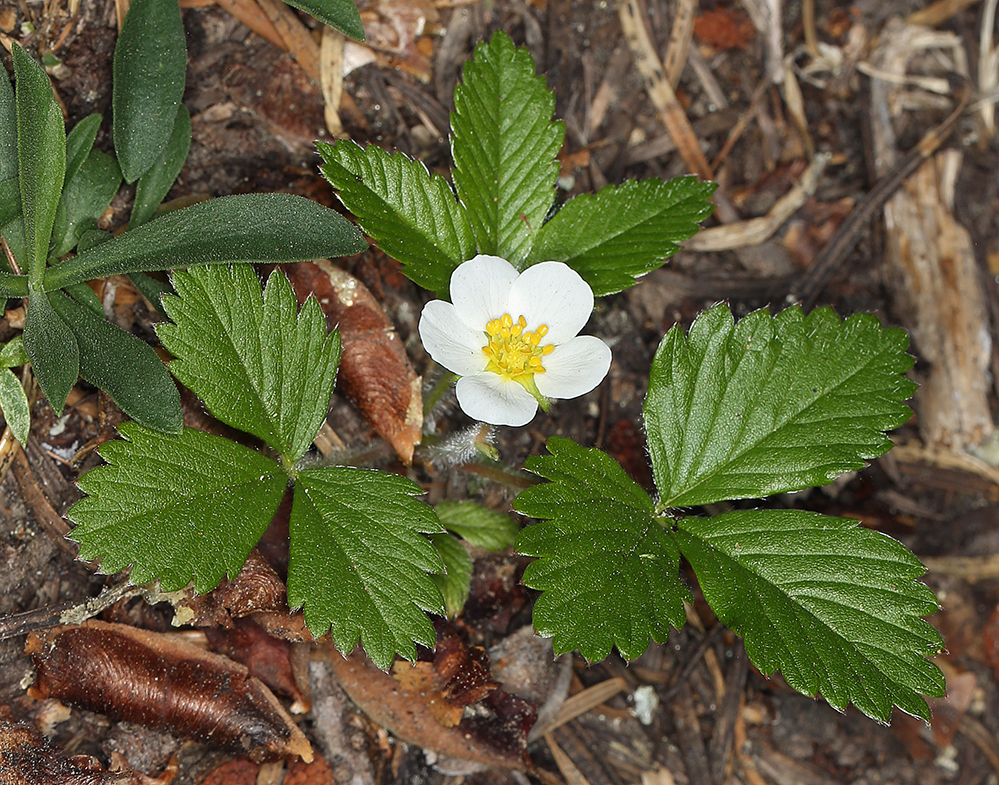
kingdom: Plantae
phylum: Tracheophyta
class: Magnoliopsida
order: Rosales
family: Rosaceae
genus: Fragaria
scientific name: Fragaria vesca
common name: Wild strawberry
